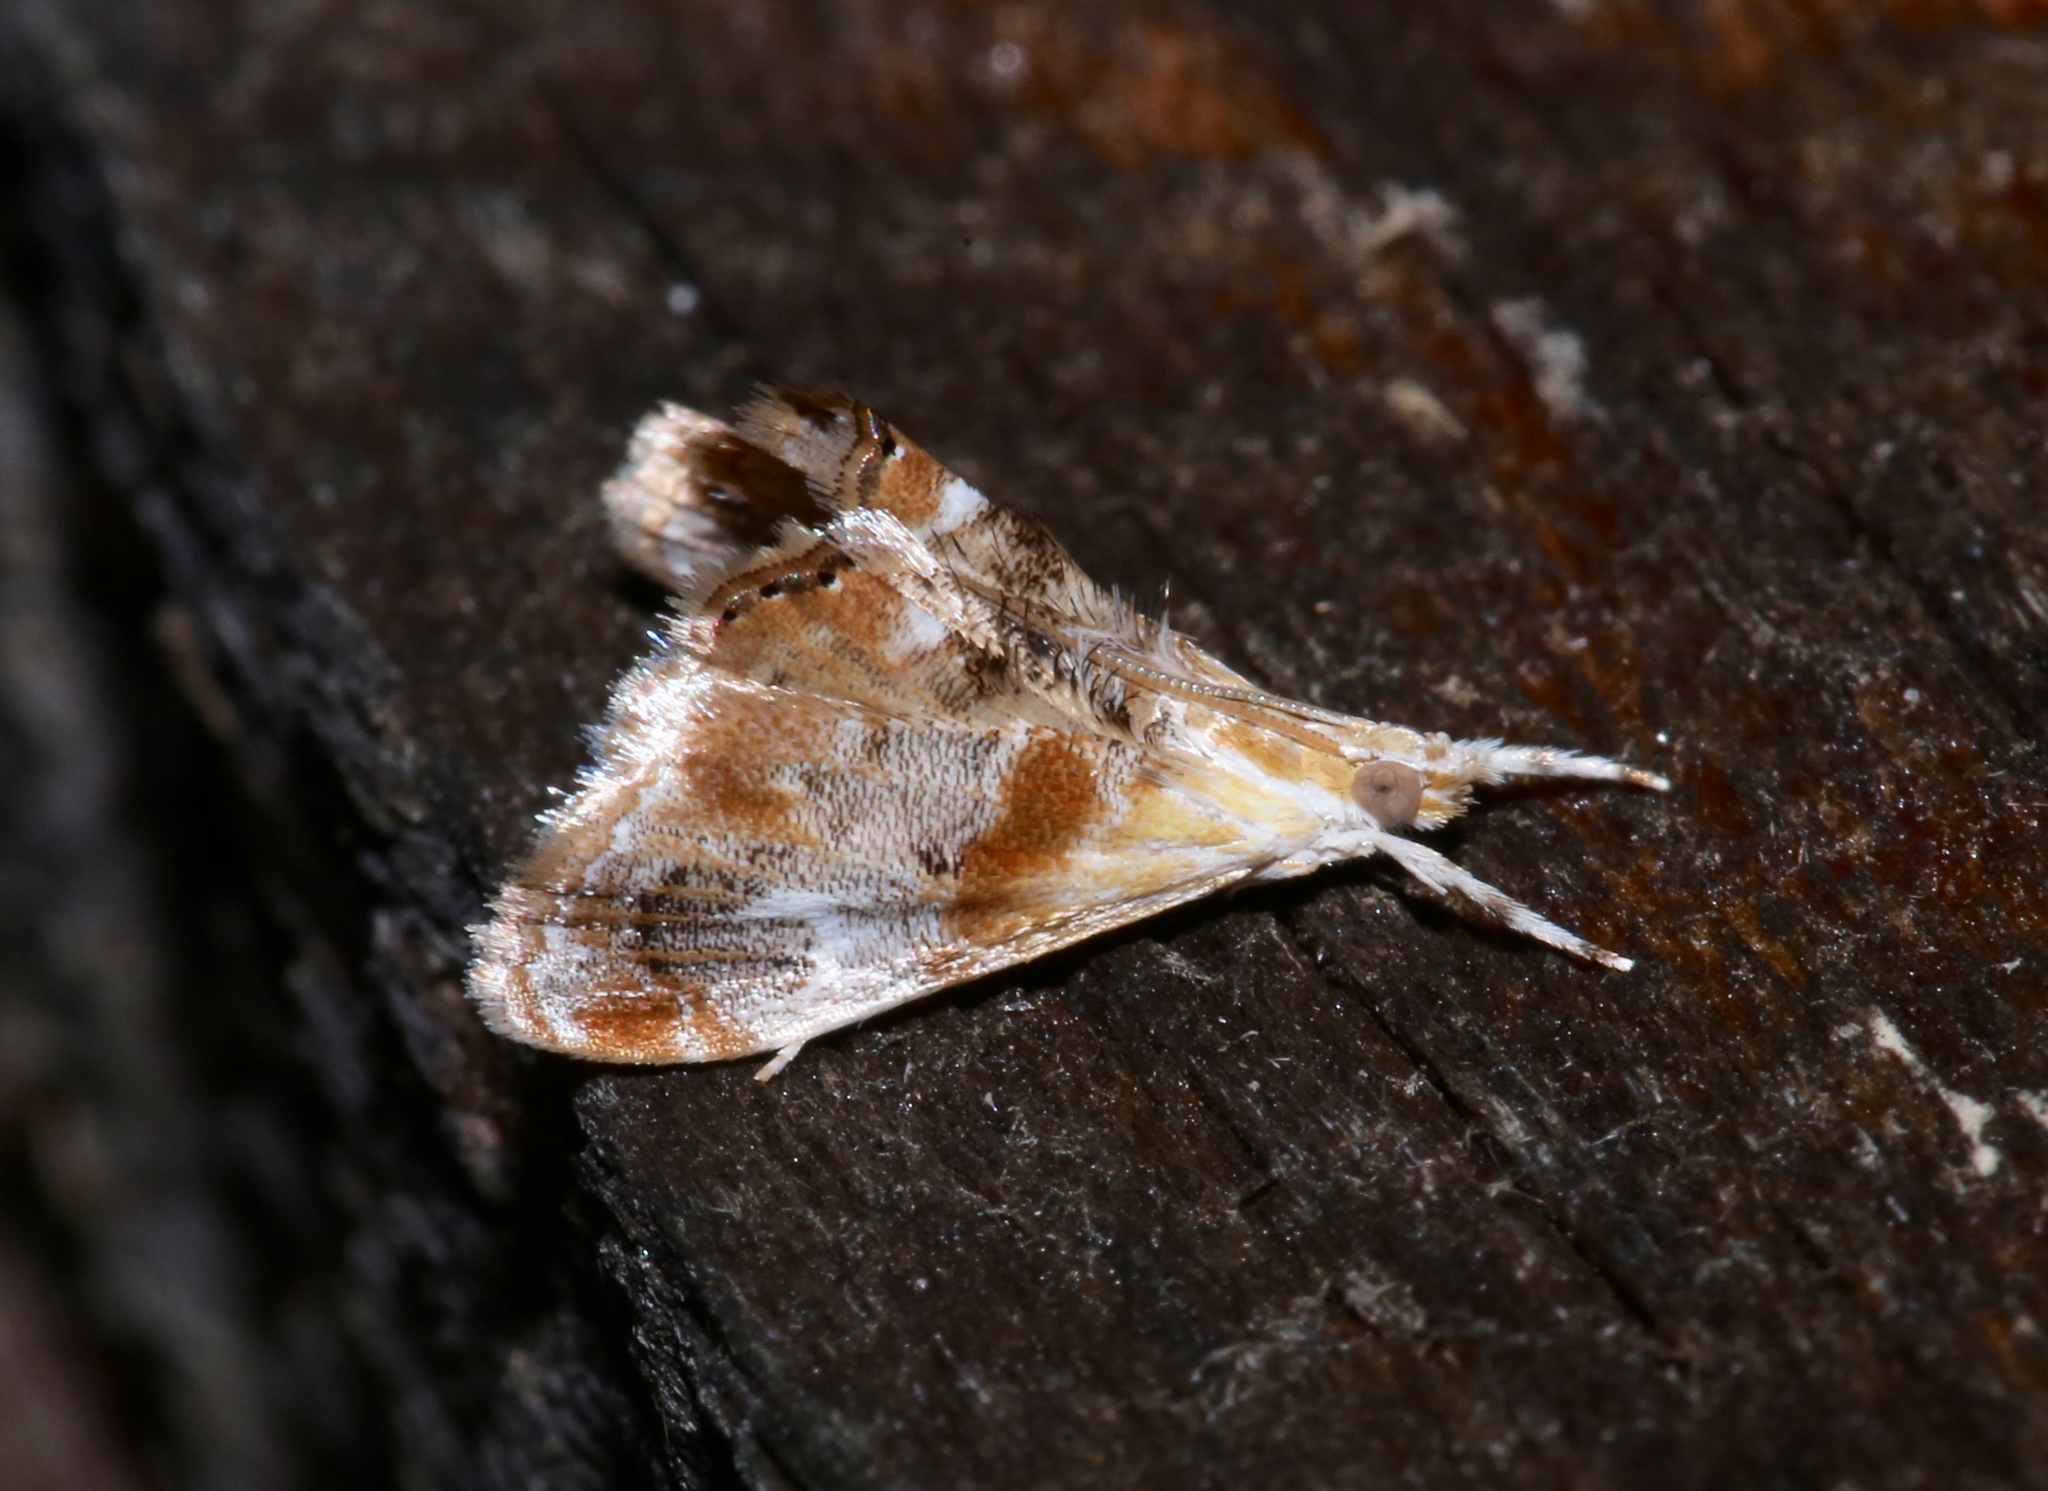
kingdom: Animalia
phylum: Arthropoda
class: Insecta
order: Lepidoptera
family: Crambidae
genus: Dicymolomia
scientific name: Dicymolomia julianalis
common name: Julia's dicymolomia moth
